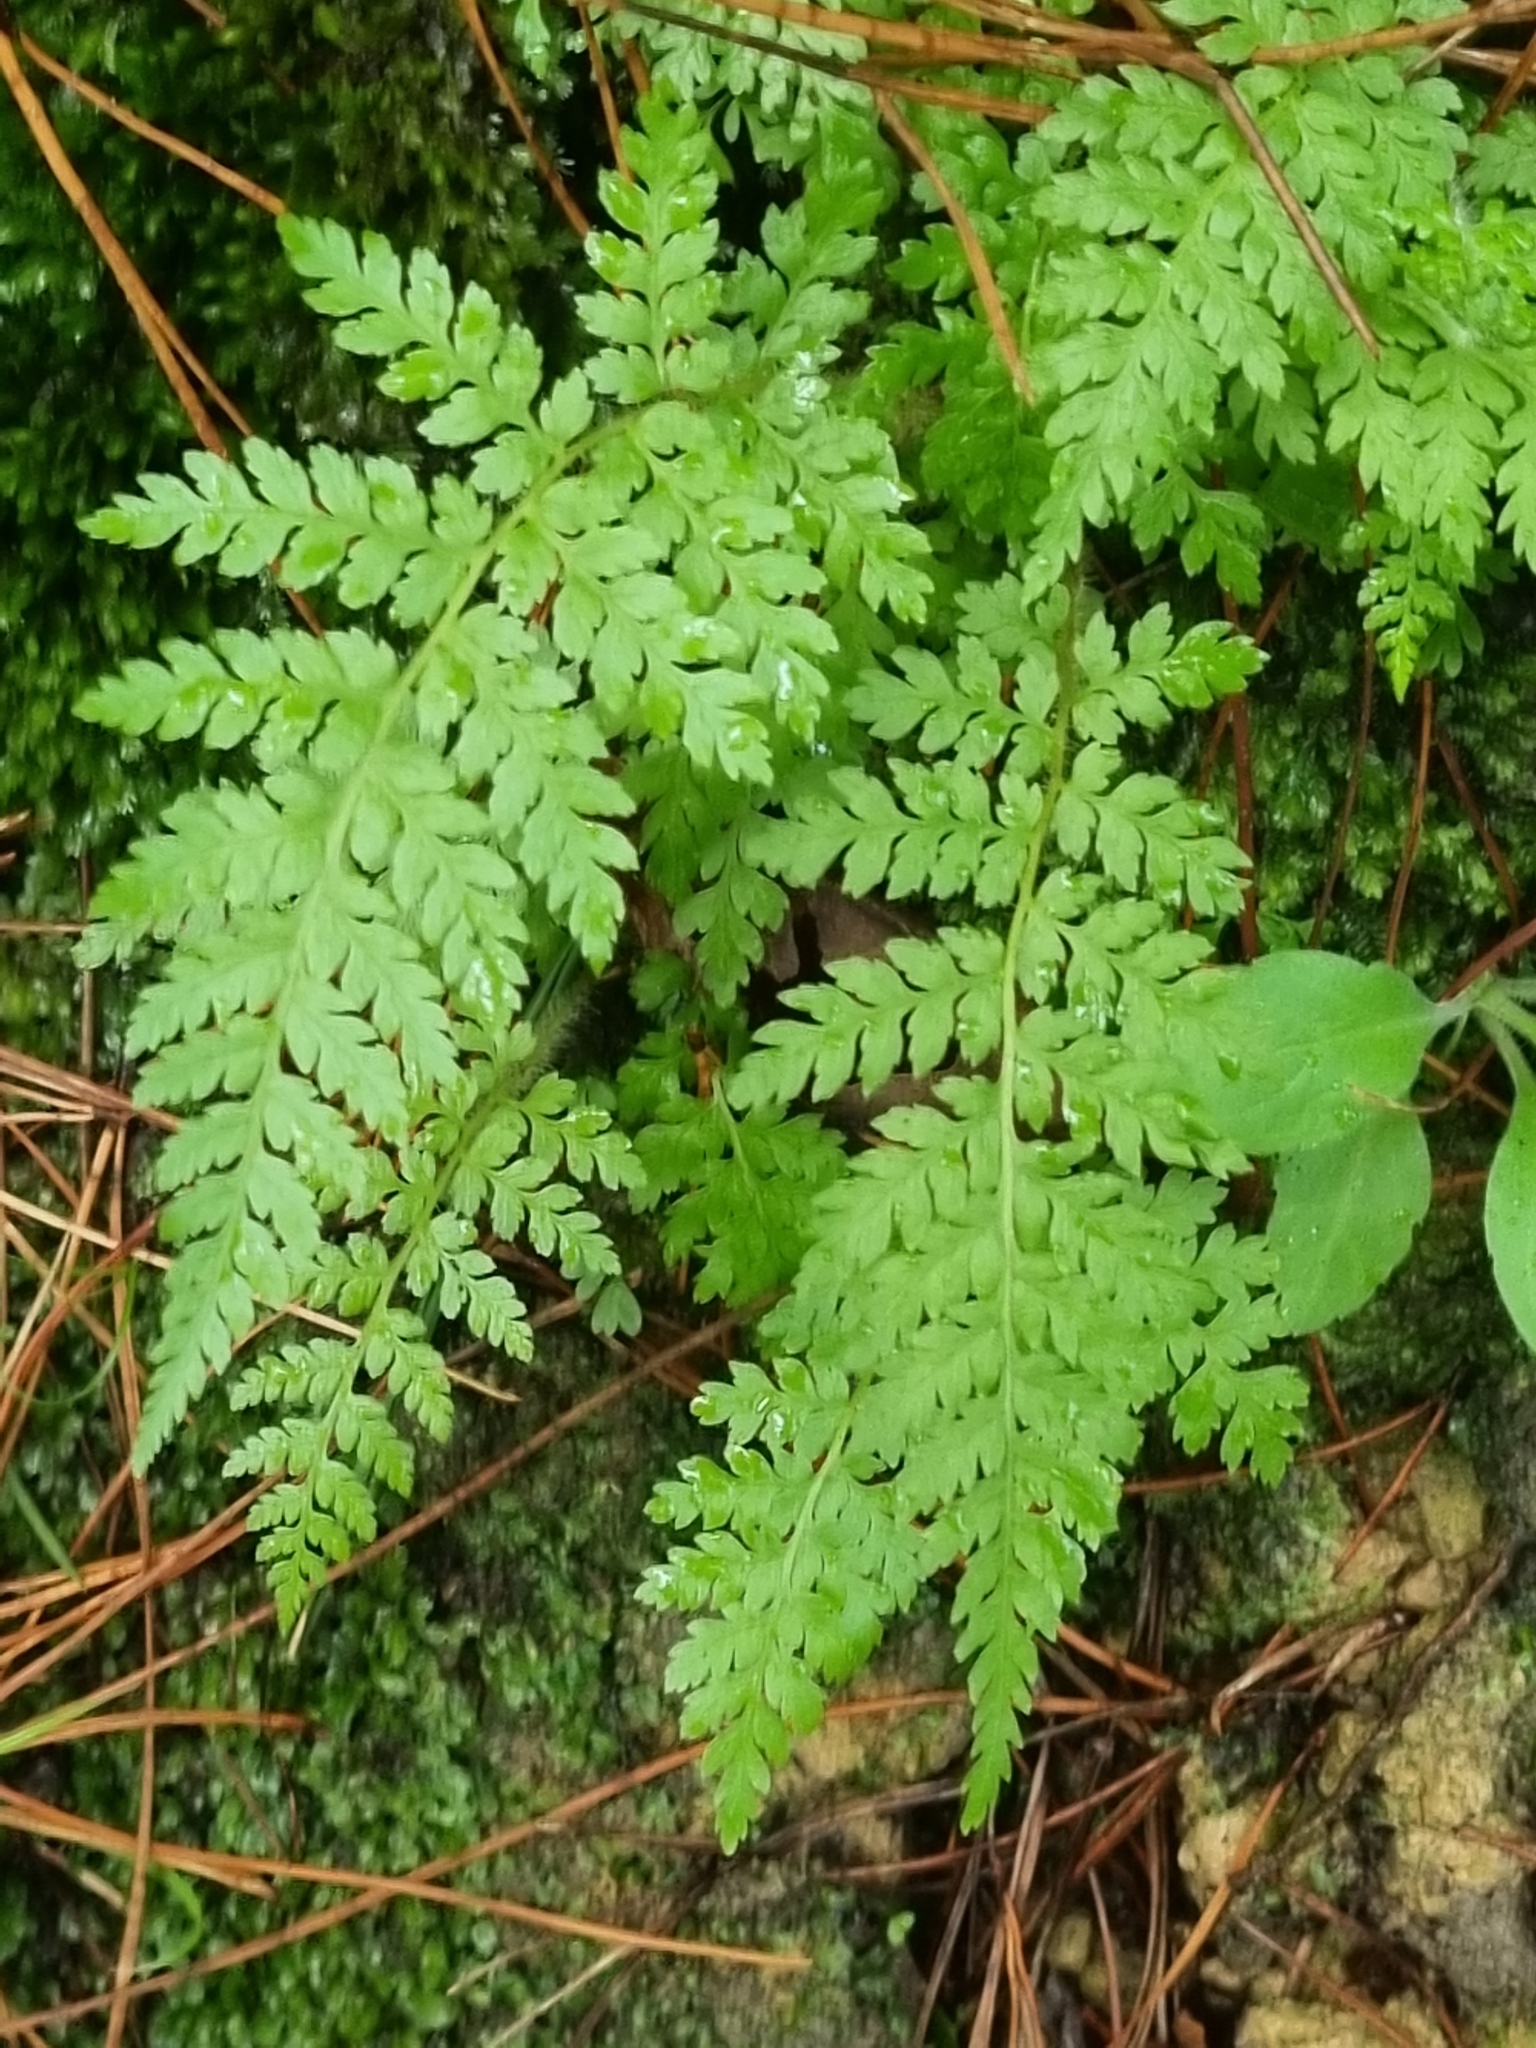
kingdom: Plantae
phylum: Tracheophyta
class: Polypodiopsida
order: Cyatheales
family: Cyatheaceae
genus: Sphaeropteris
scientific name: Sphaeropteris medullaris
